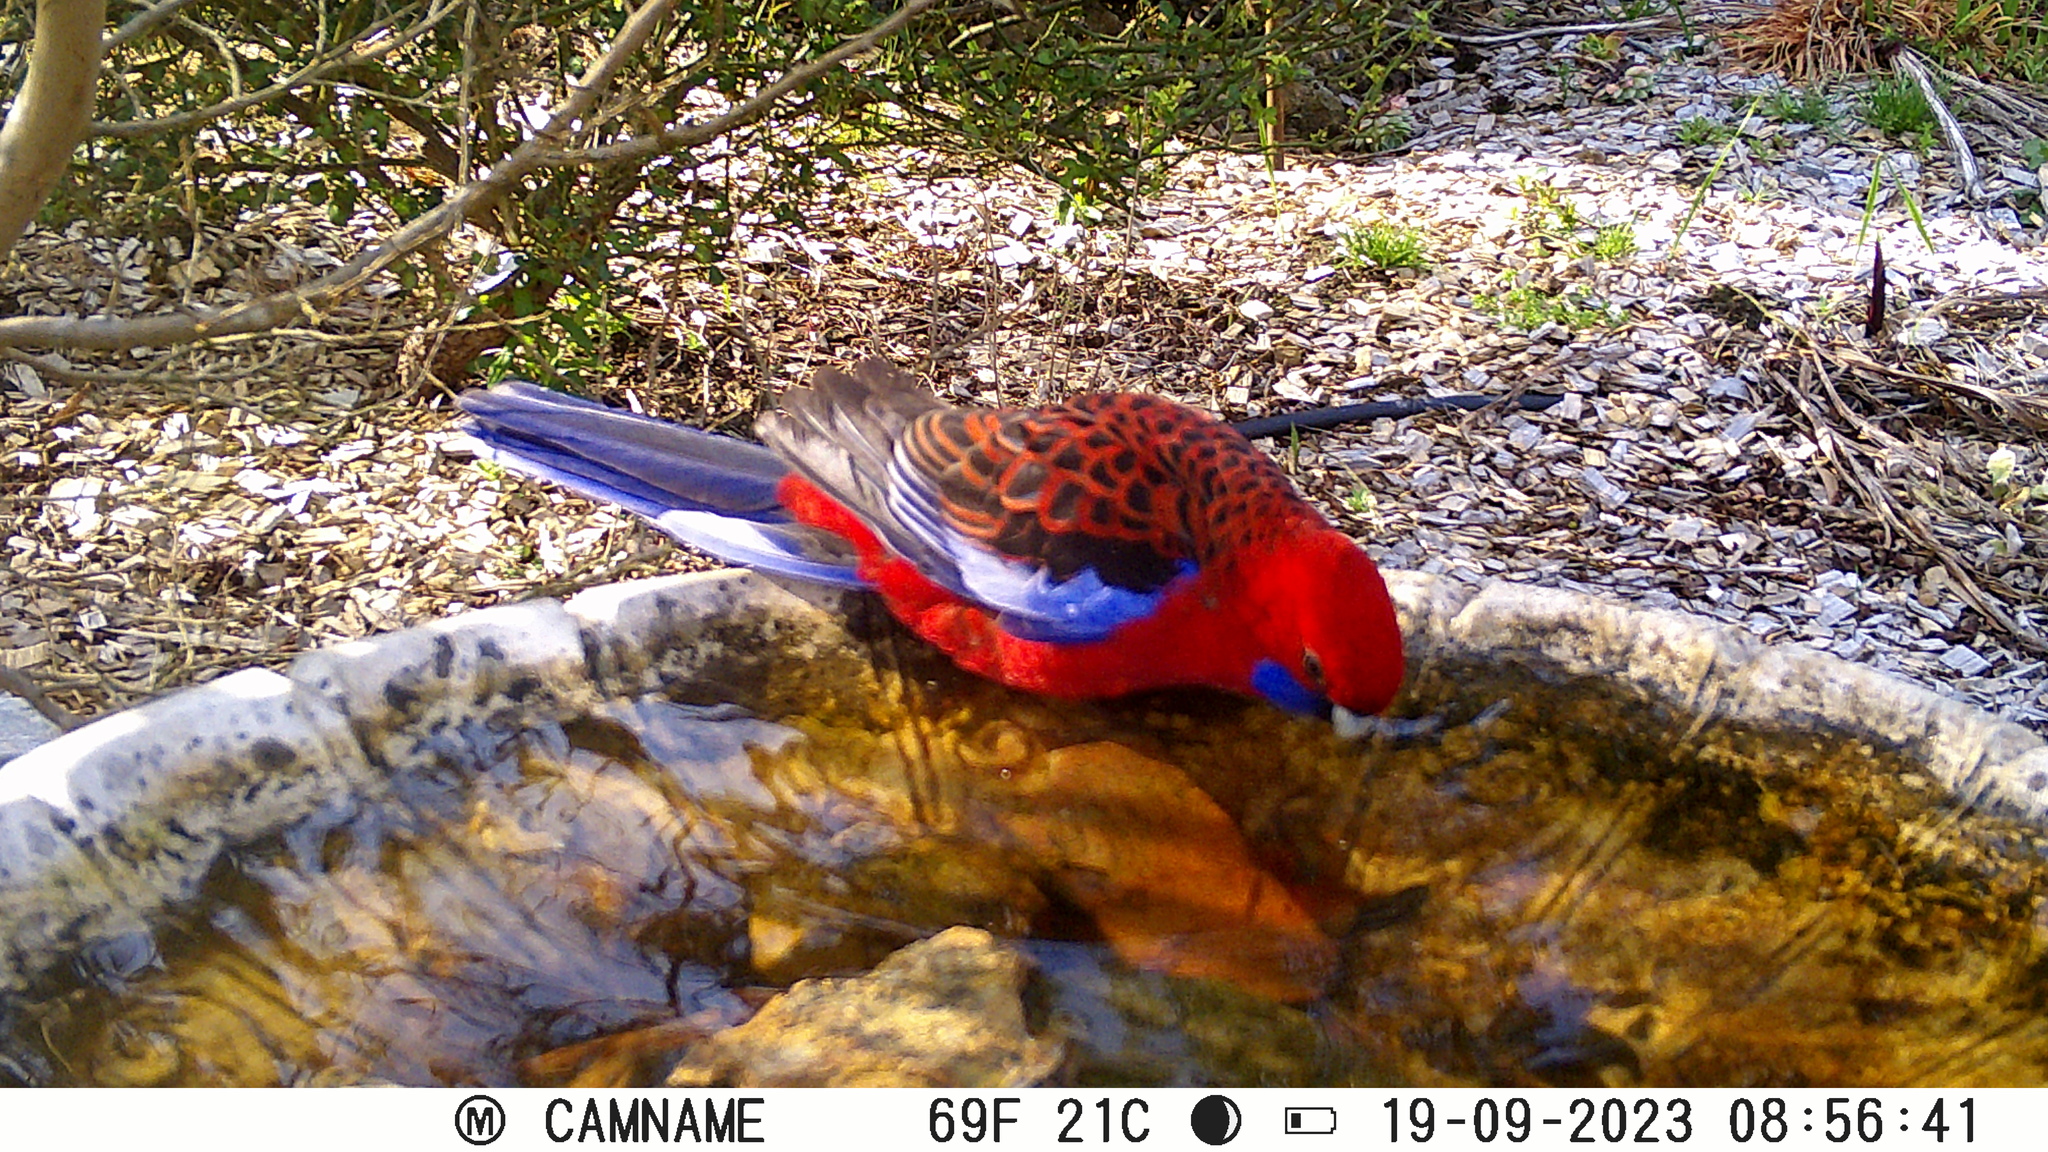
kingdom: Animalia
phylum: Chordata
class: Aves
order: Psittaciformes
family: Psittacidae
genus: Platycercus
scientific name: Platycercus elegans
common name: Crimson rosella
